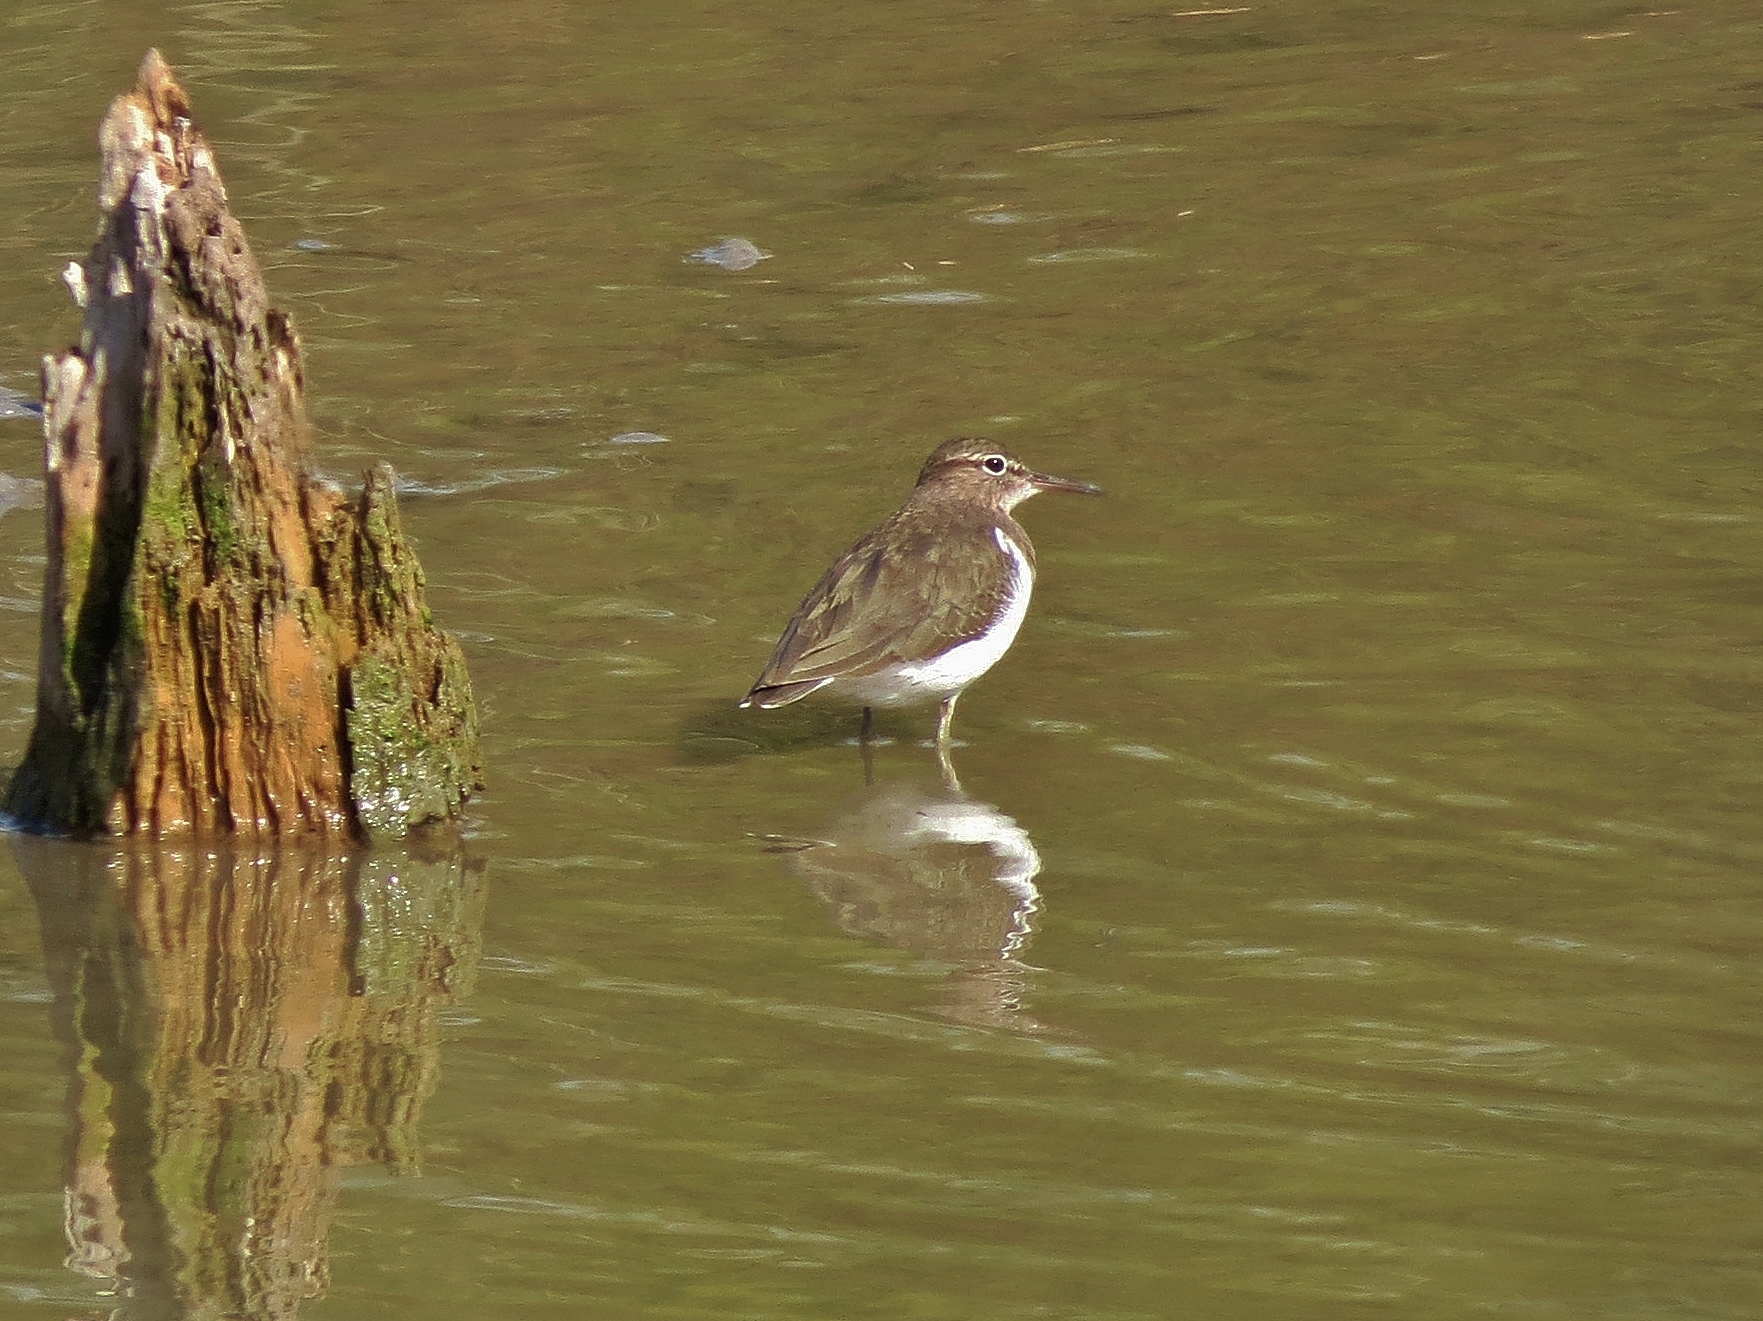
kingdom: Animalia
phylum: Chordata
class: Aves
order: Charadriiformes
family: Scolopacidae
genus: Actitis
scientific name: Actitis macularius
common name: Spotted sandpiper
